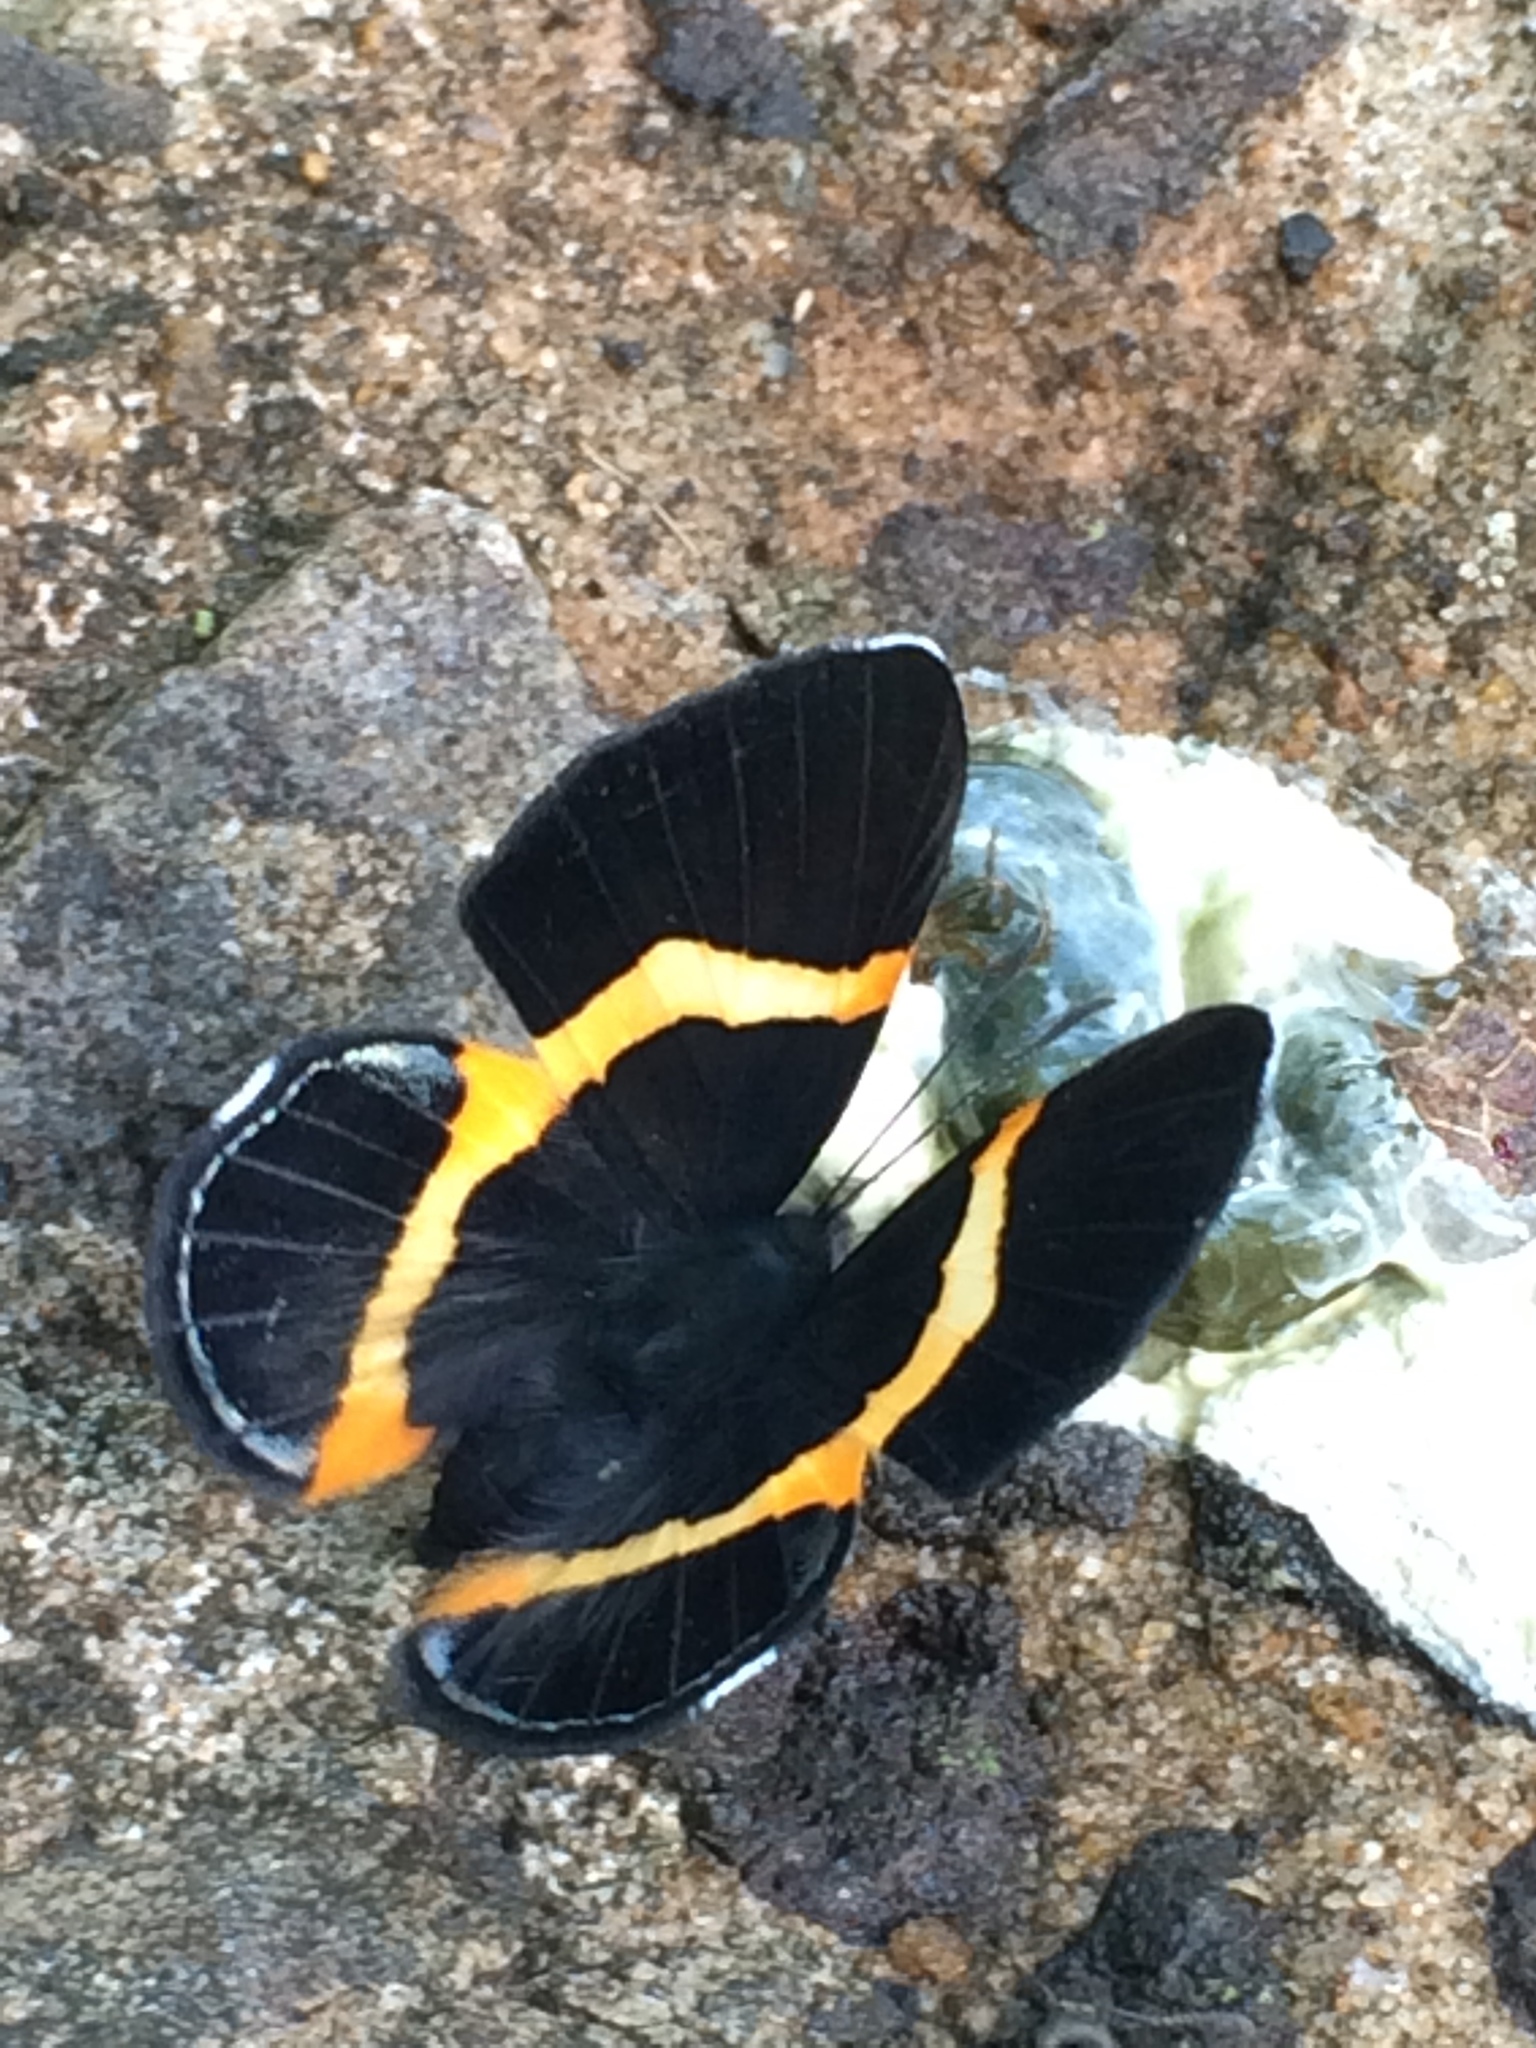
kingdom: Animalia
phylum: Arthropoda
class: Insecta
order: Lepidoptera
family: Riodinidae
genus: Notheme
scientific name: Notheme eumeus
